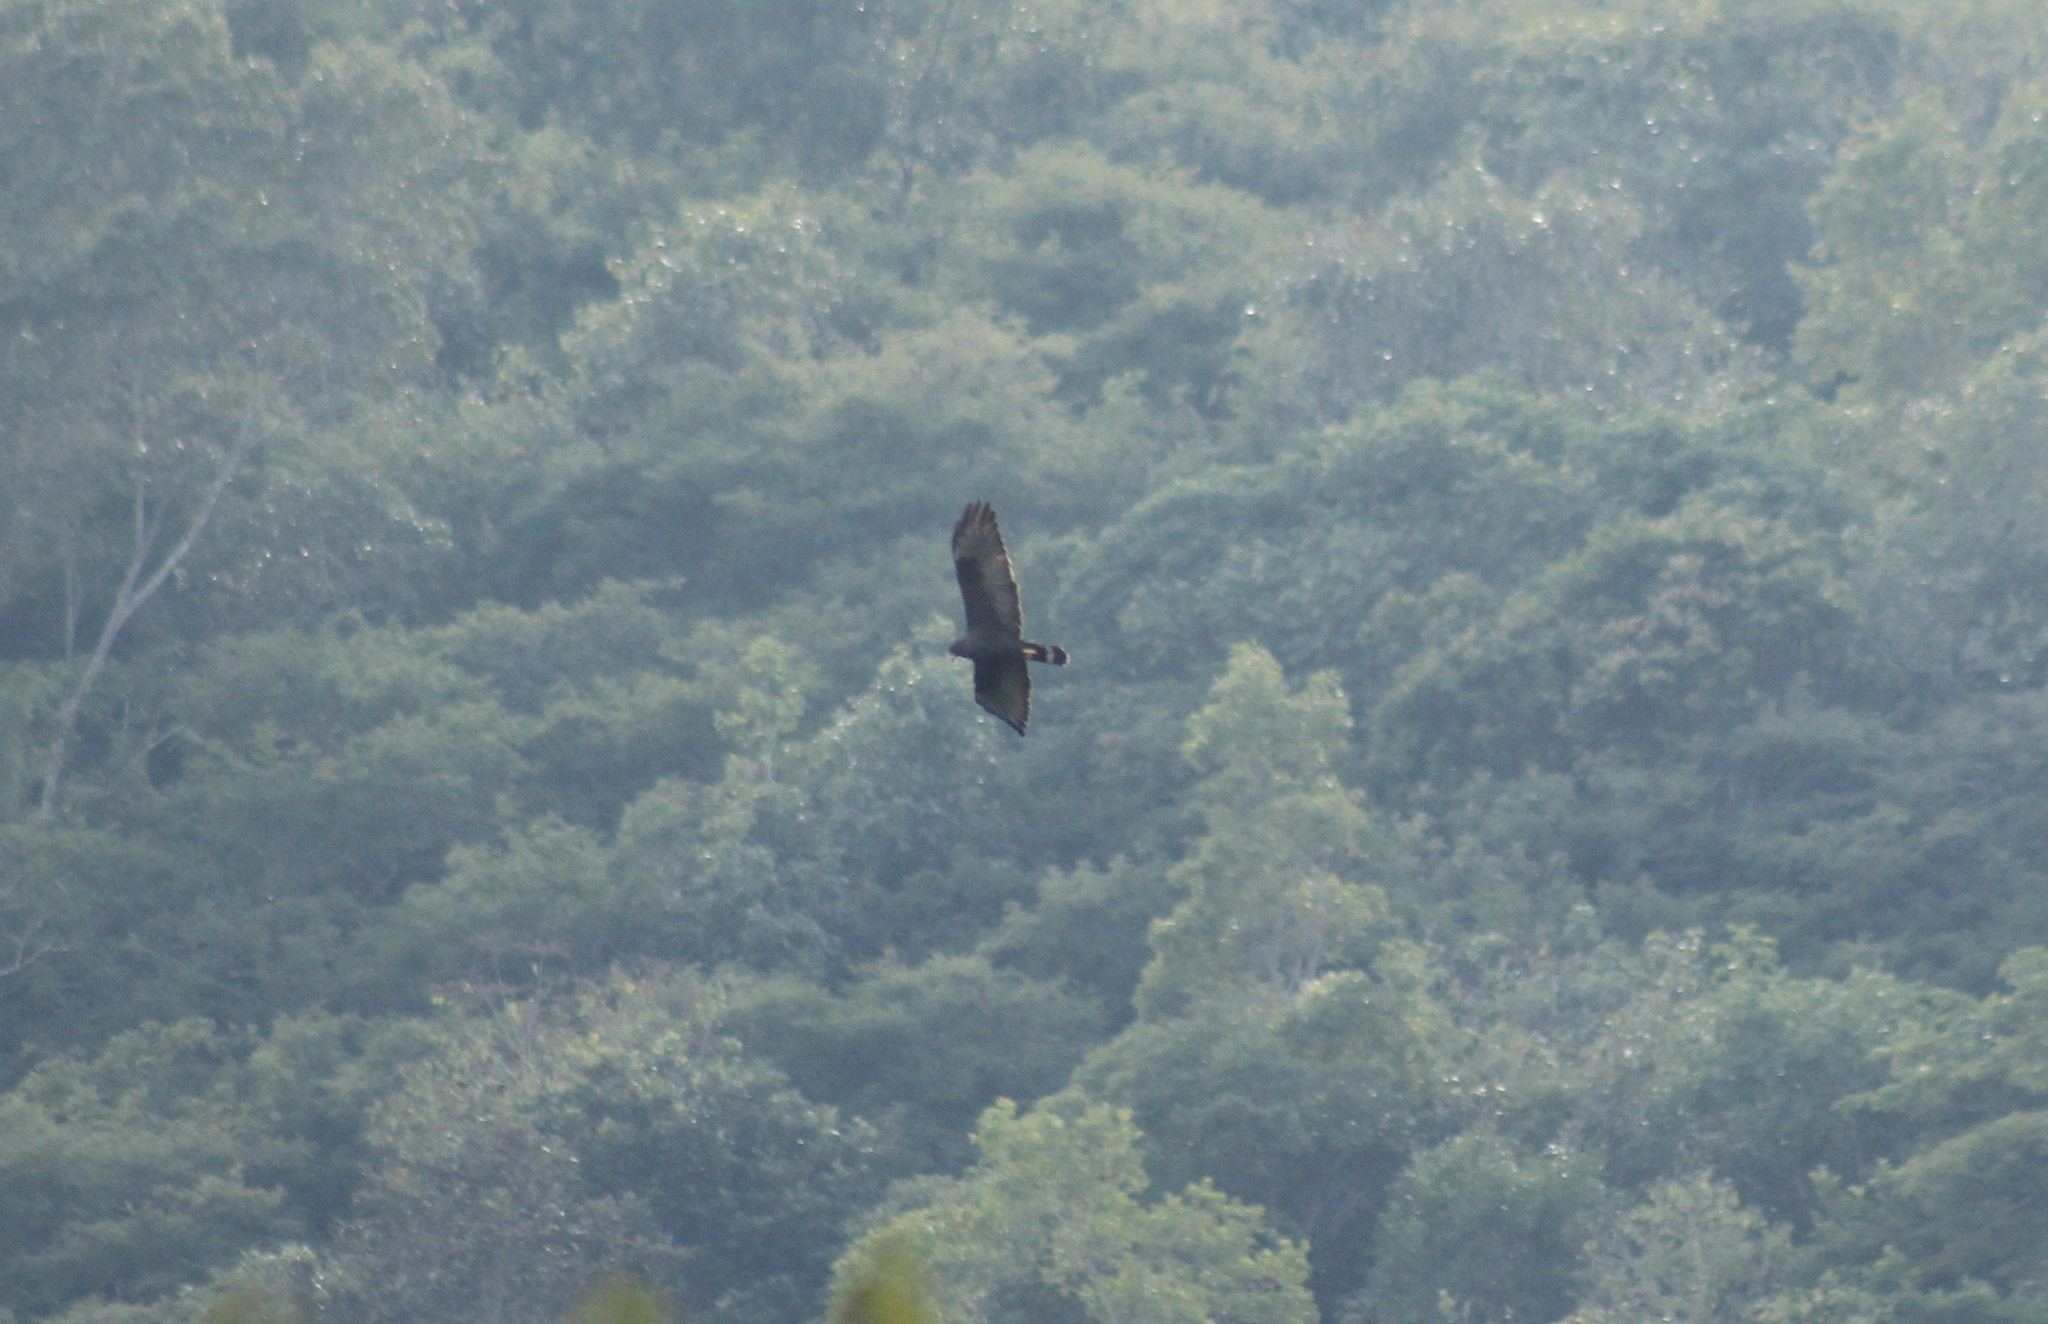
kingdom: Animalia
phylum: Chordata
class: Aves
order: Accipitriformes
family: Accipitridae
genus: Buteo
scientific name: Buteo albonotatus
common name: Zone-tailed hawk
